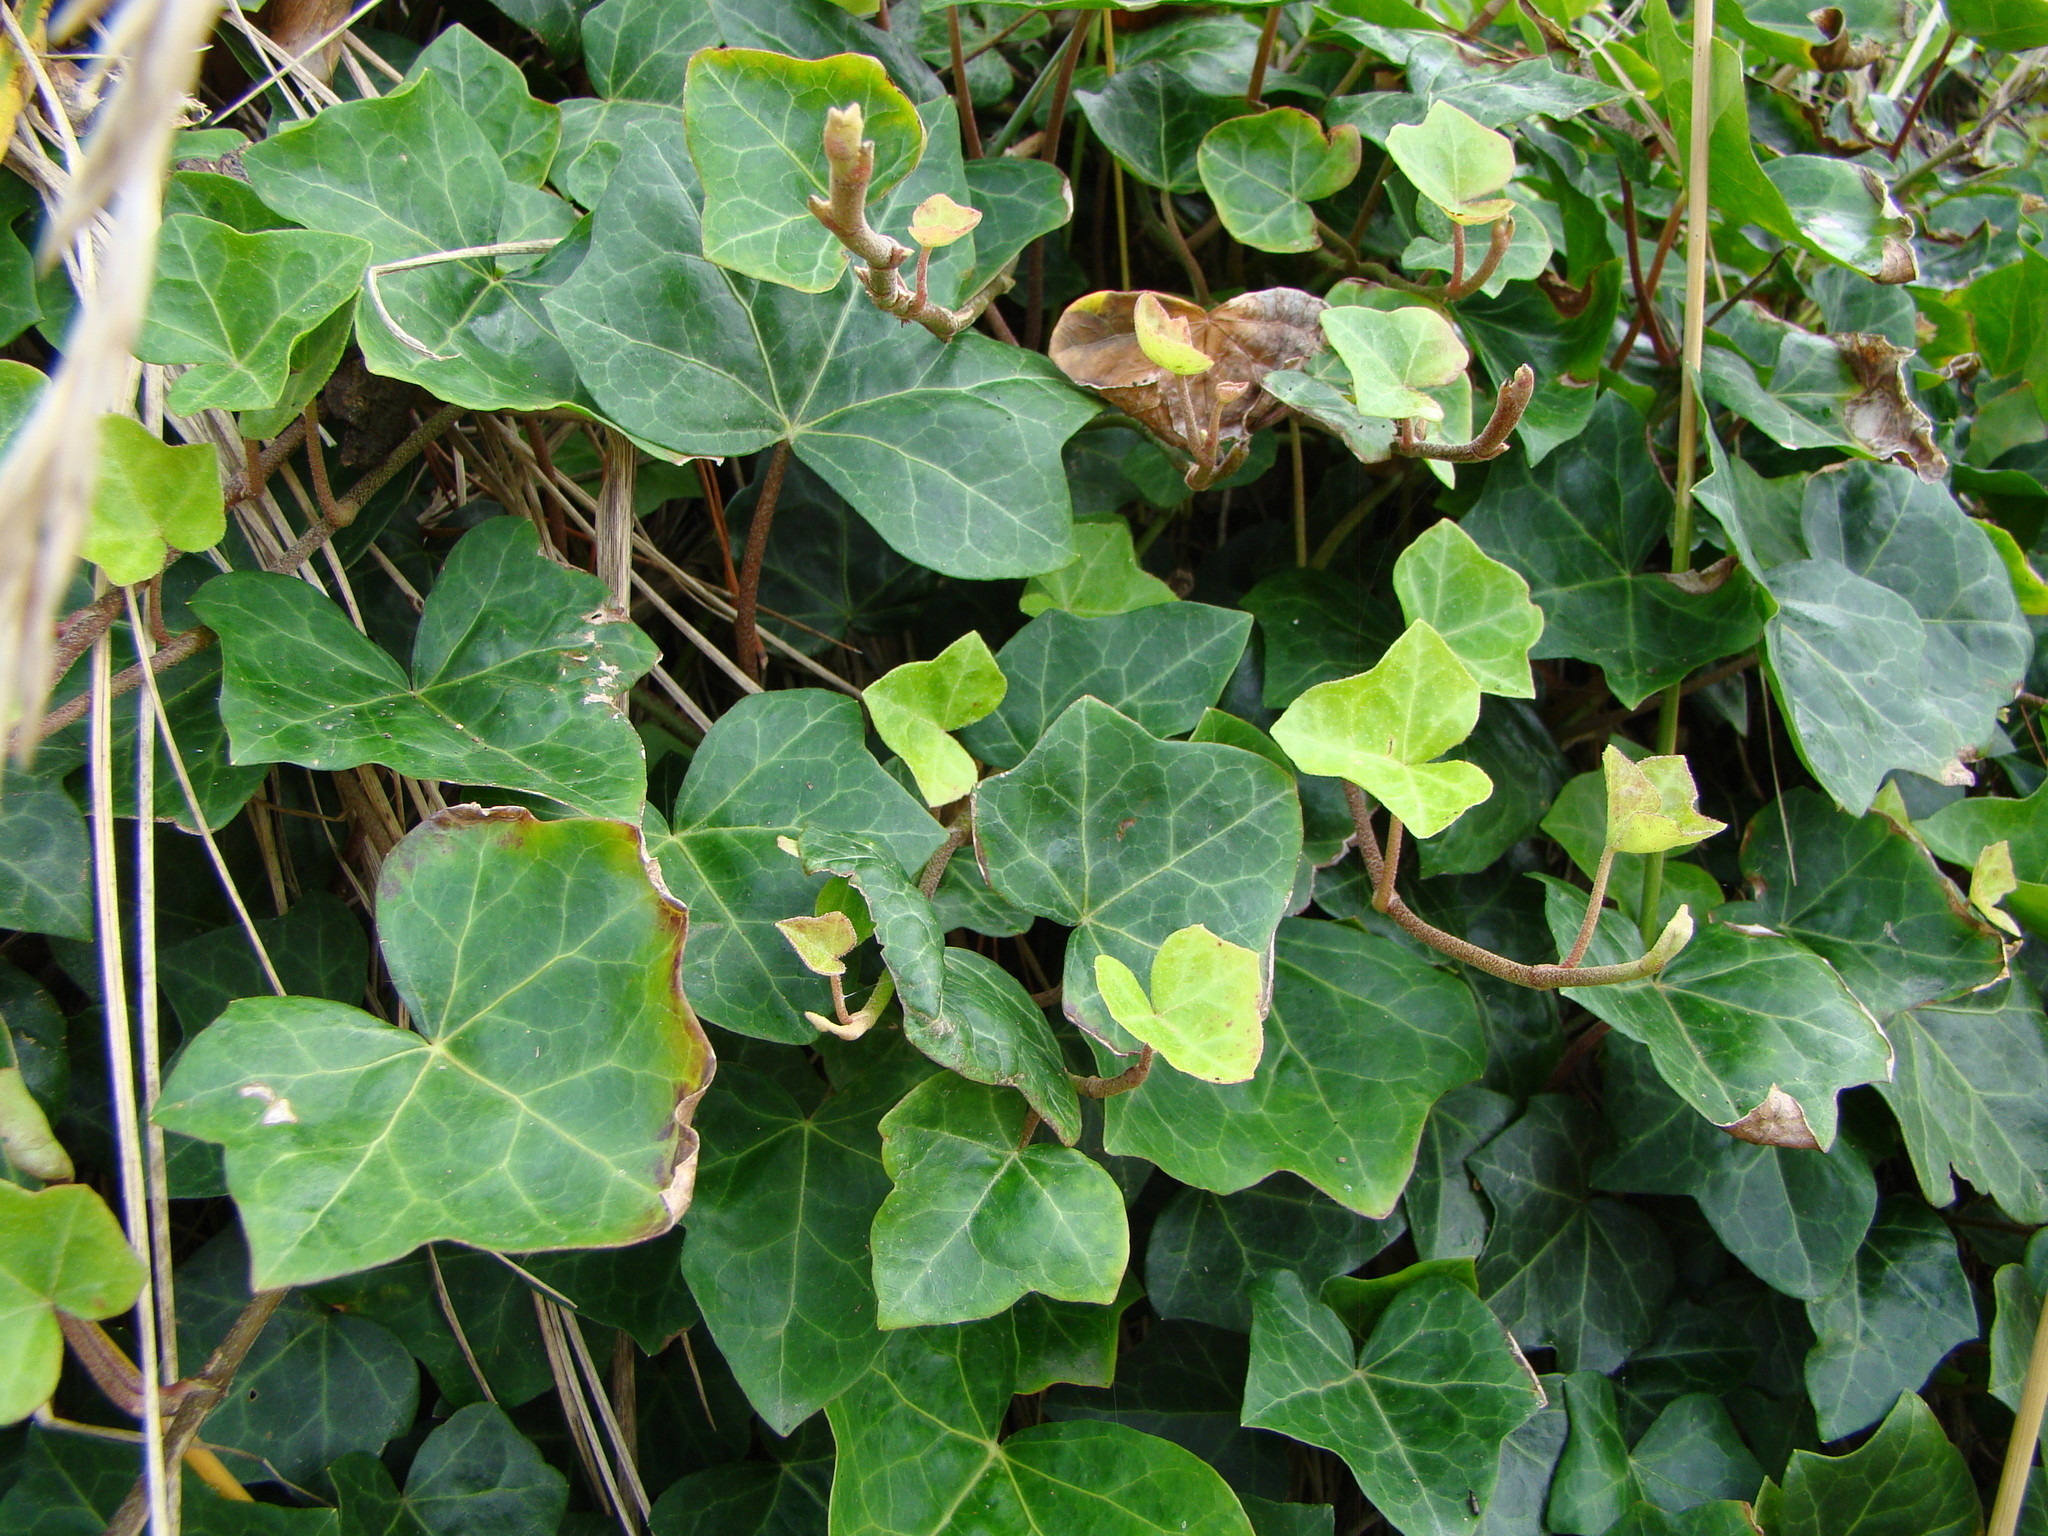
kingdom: Plantae
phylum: Tracheophyta
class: Magnoliopsida
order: Apiales
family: Araliaceae
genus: Hedera
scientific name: Hedera helix
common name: Ivy
